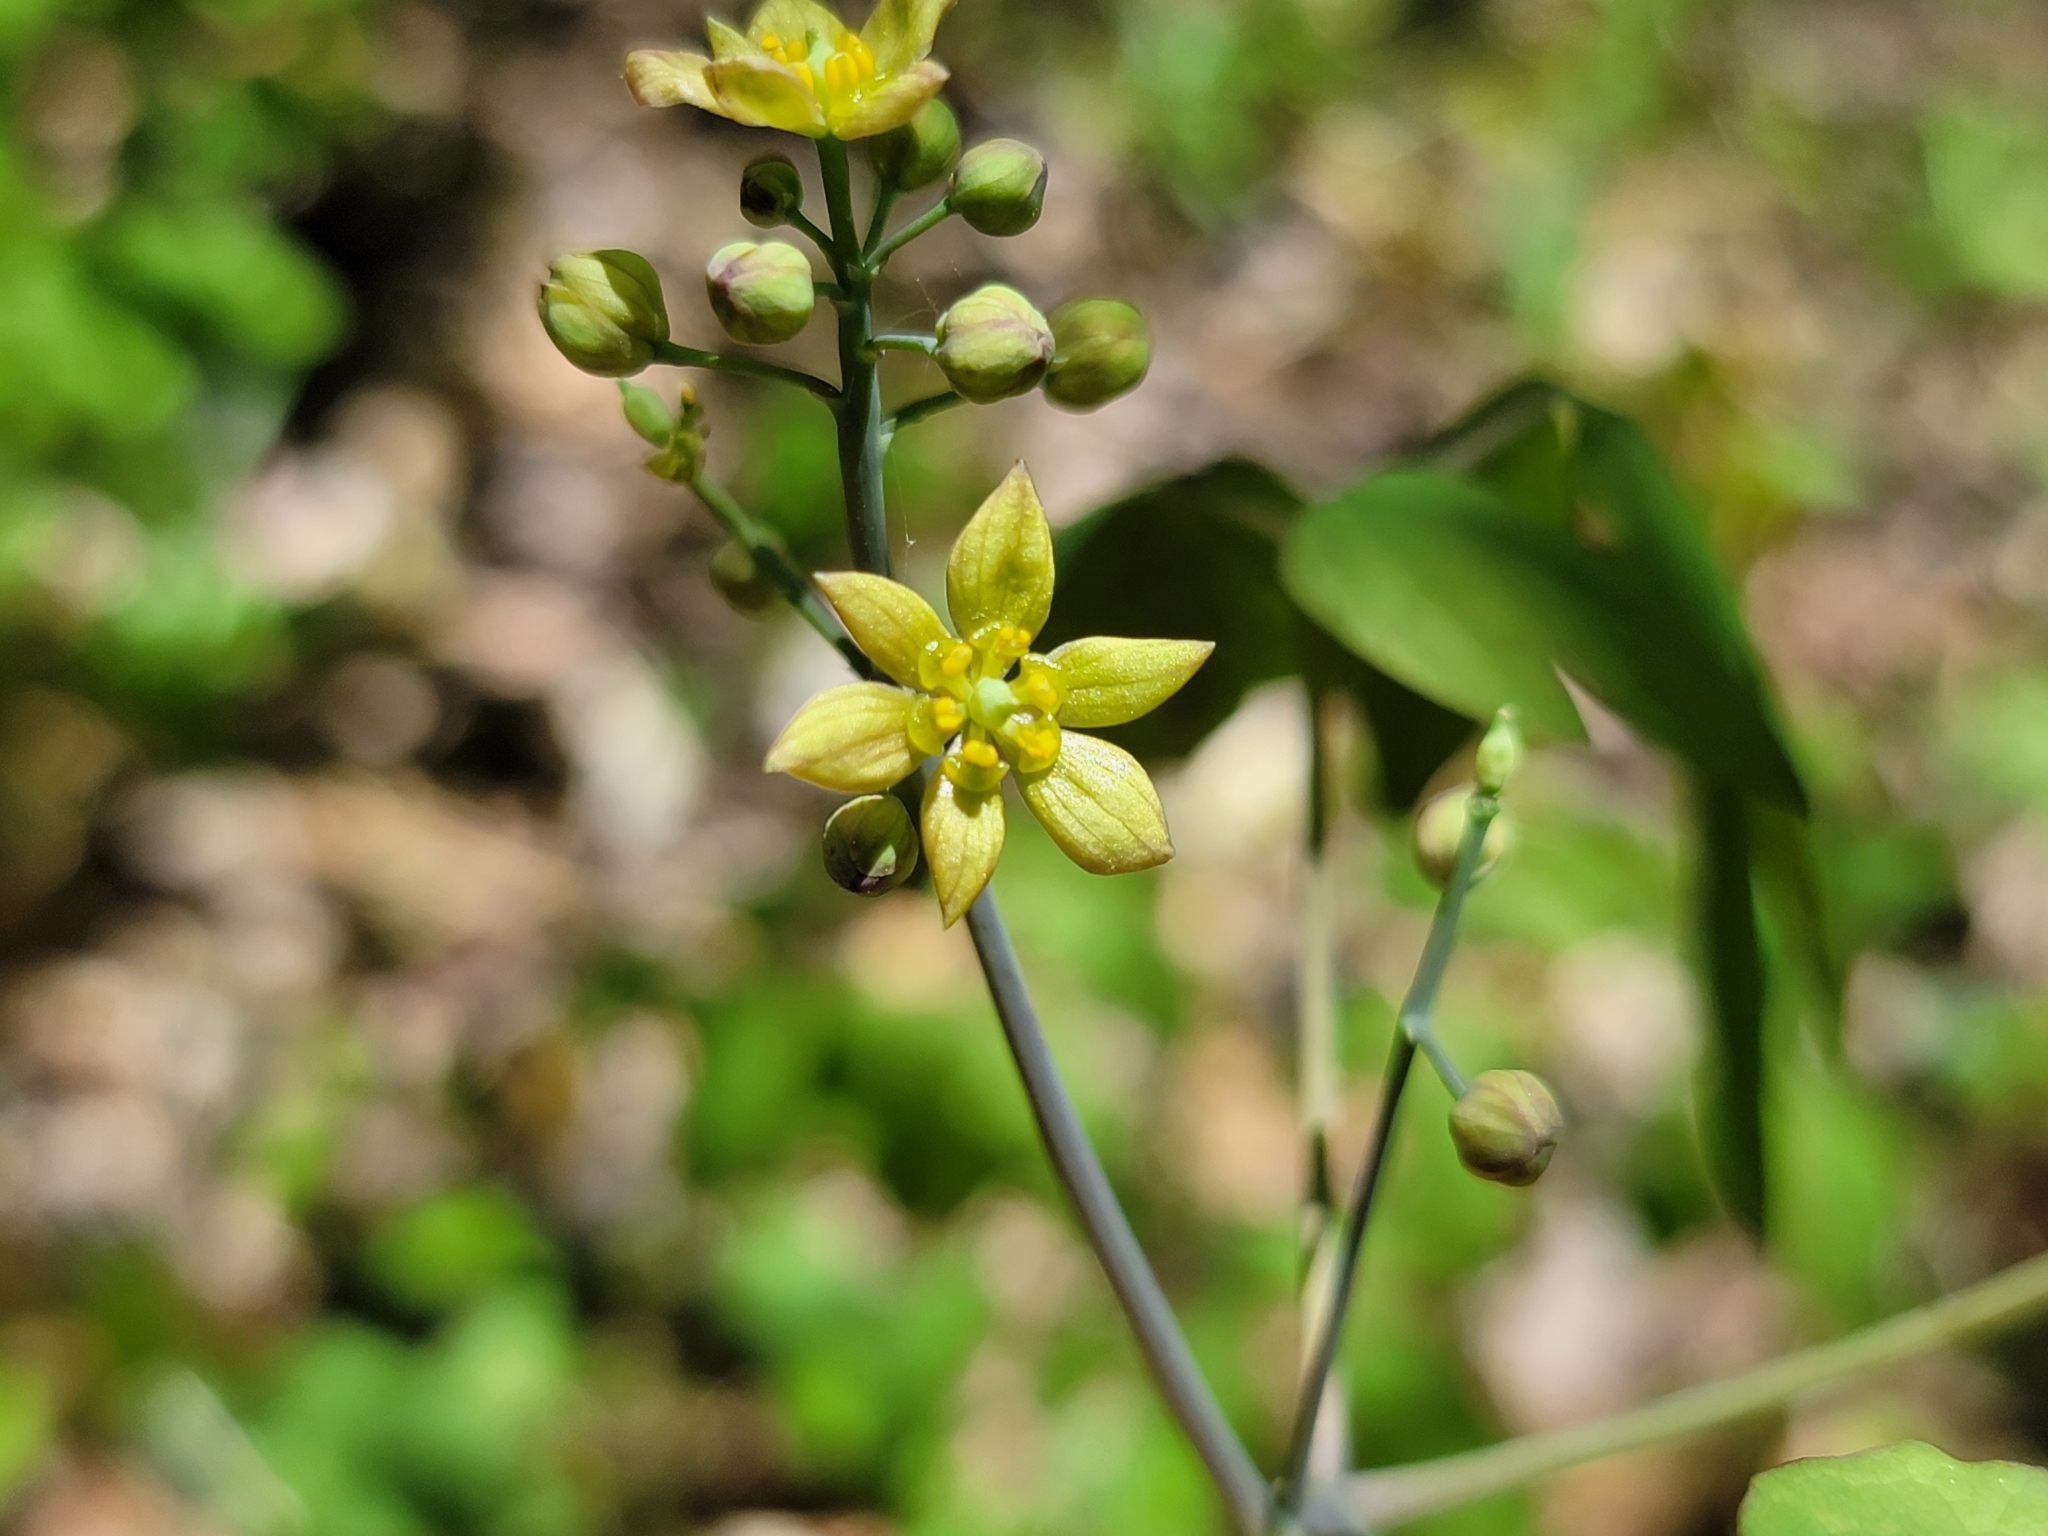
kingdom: Plantae
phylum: Tracheophyta
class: Magnoliopsida
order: Ranunculales
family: Berberidaceae
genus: Caulophyllum
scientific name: Caulophyllum thalictroides
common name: Blue cohosh
